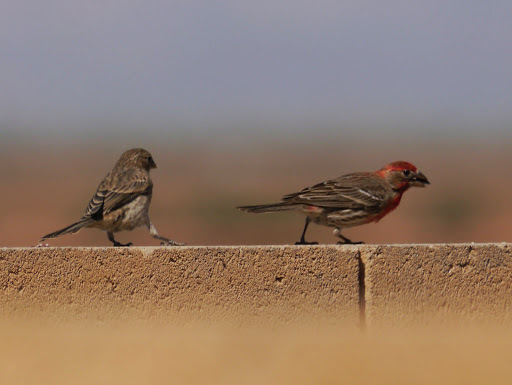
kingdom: Animalia
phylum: Chordata
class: Aves
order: Passeriformes
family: Fringillidae
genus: Haemorhous
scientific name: Haemorhous mexicanus
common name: House finch
